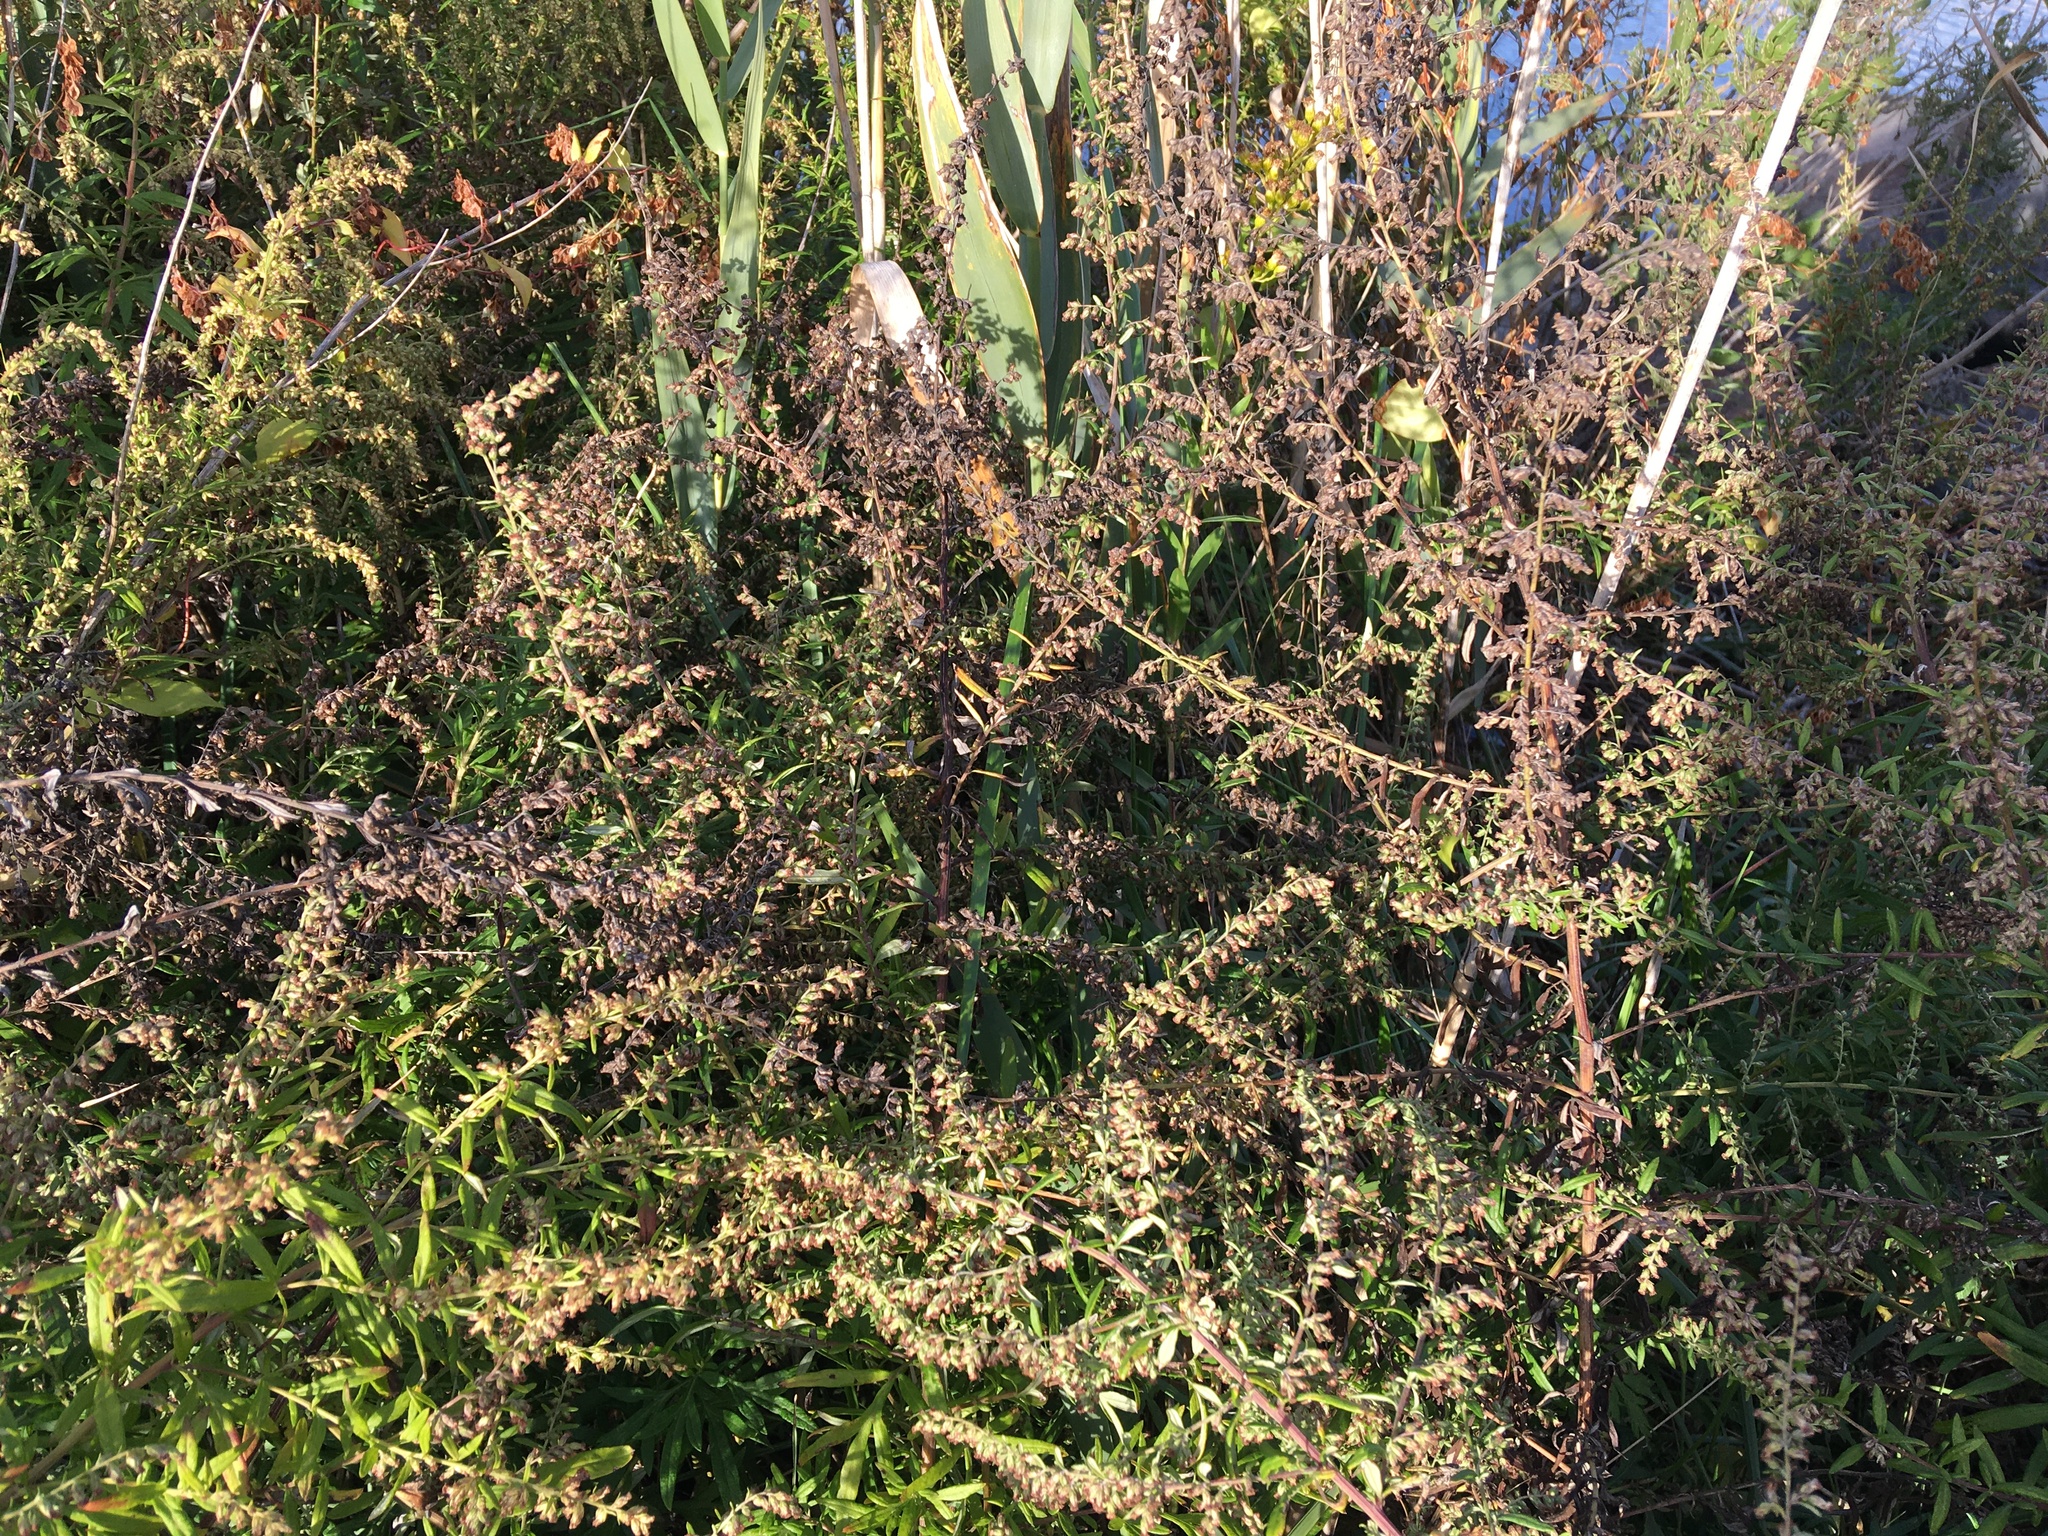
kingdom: Plantae
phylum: Tracheophyta
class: Magnoliopsida
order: Asterales
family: Asteraceae
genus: Artemisia
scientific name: Artemisia vulgaris
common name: Mugwort
